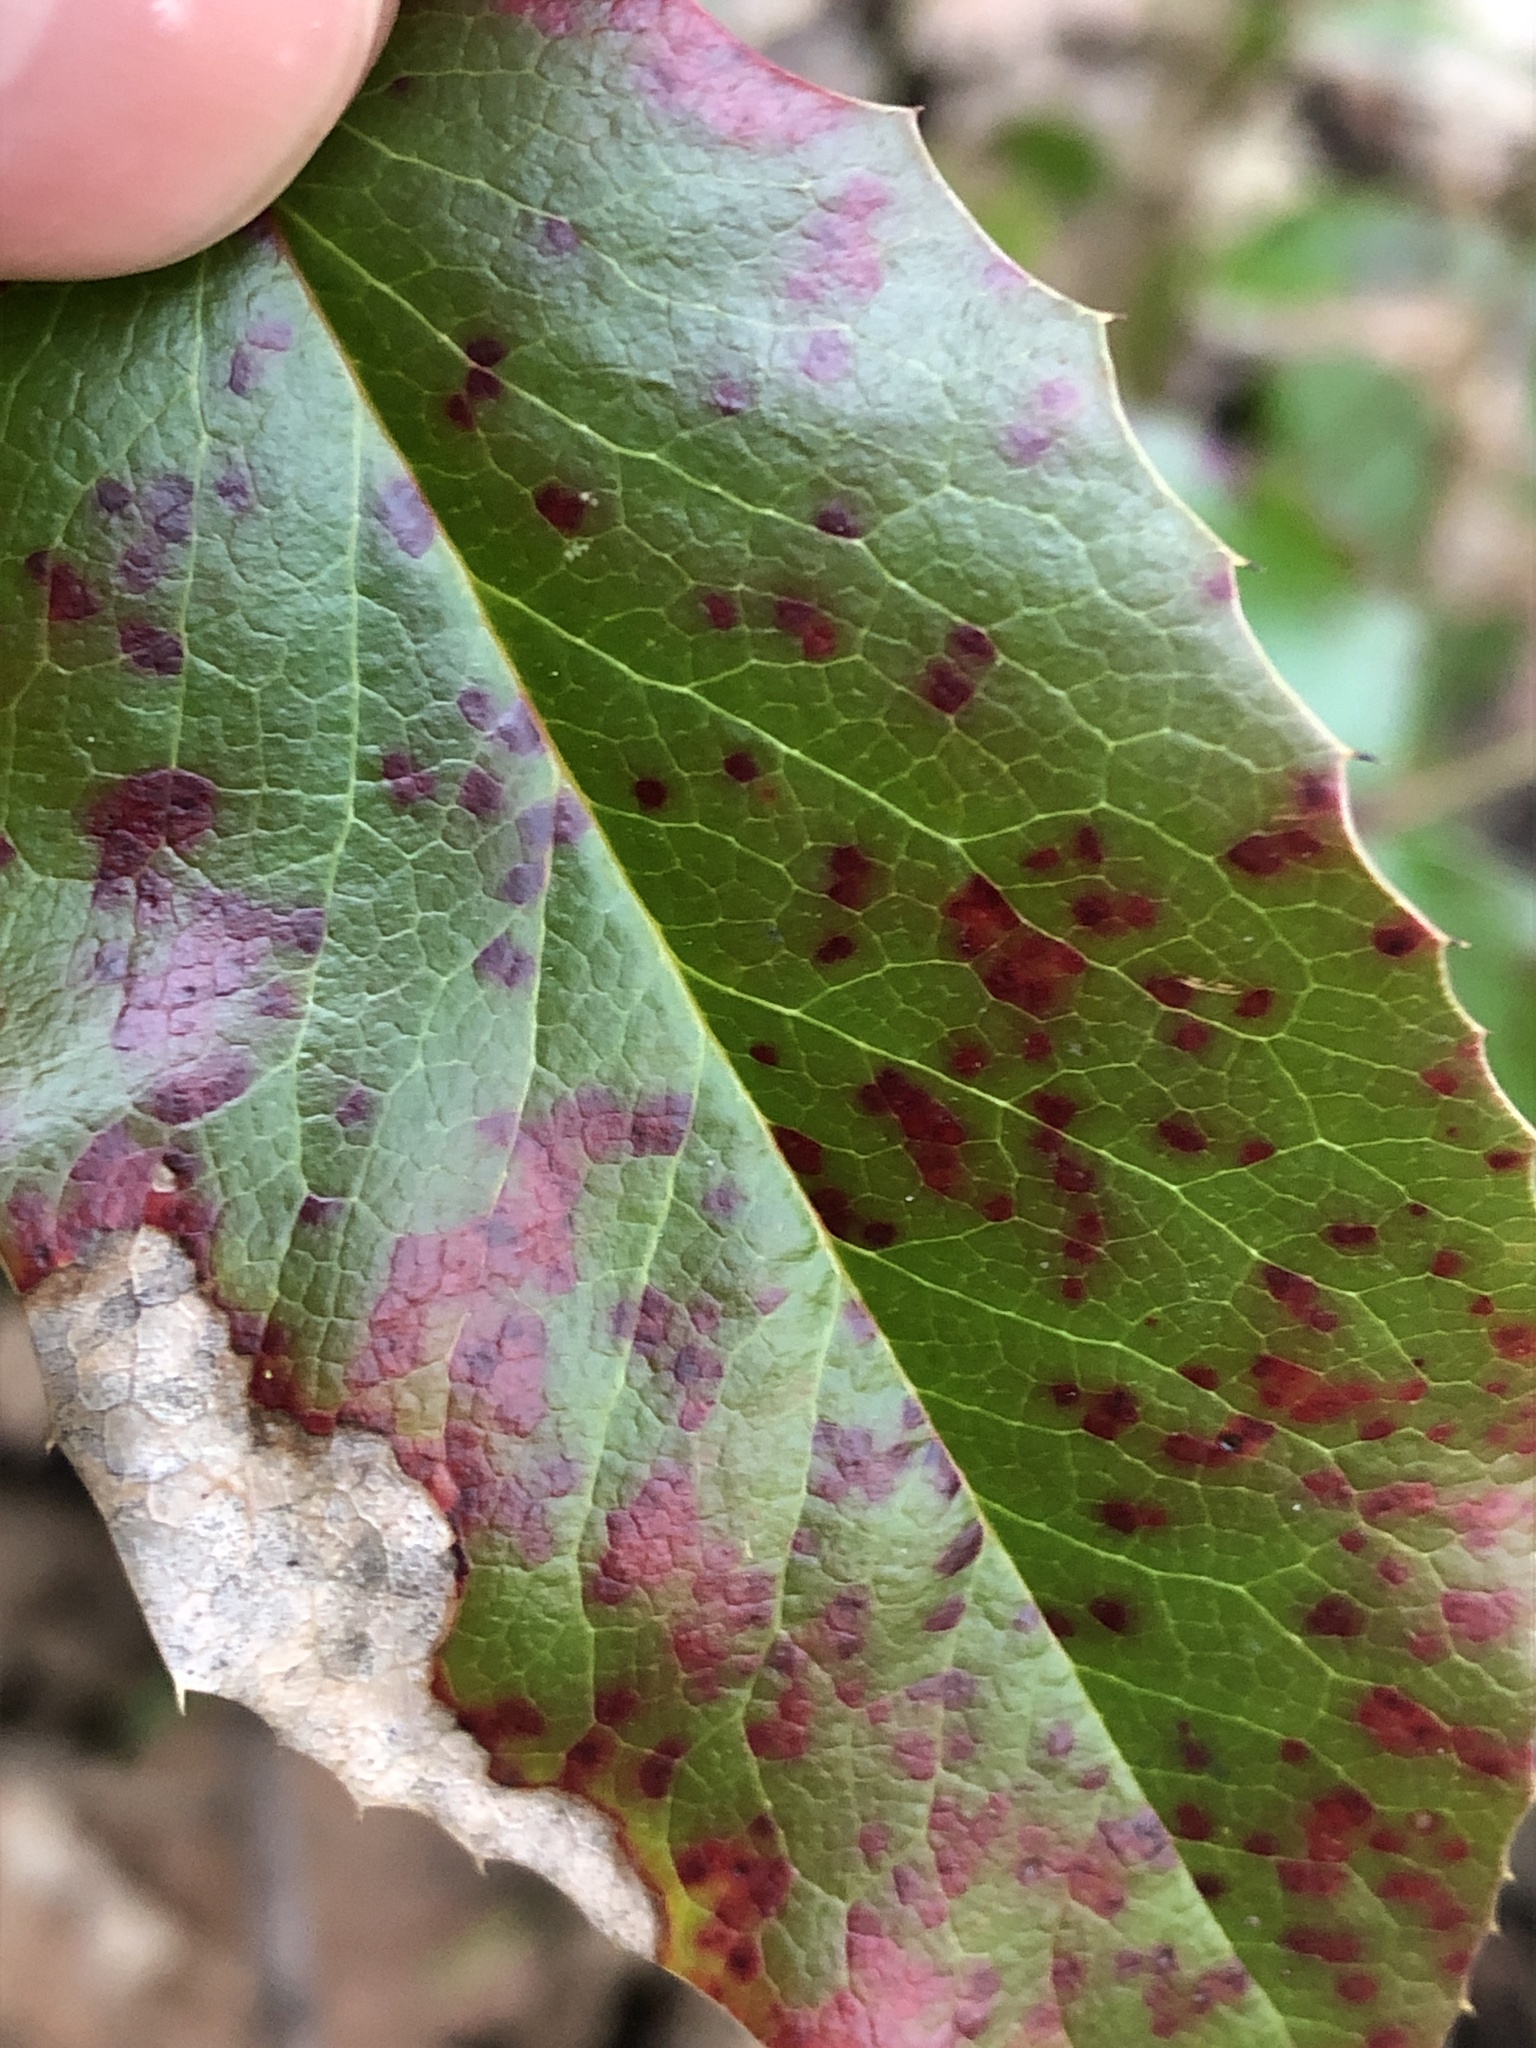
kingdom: Fungi
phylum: Basidiomycota
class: Pucciniomycetes
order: Pucciniales
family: Pucciniaceae
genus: Cumminsiella
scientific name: Cumminsiella mirabilissima
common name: Mahonia rust
